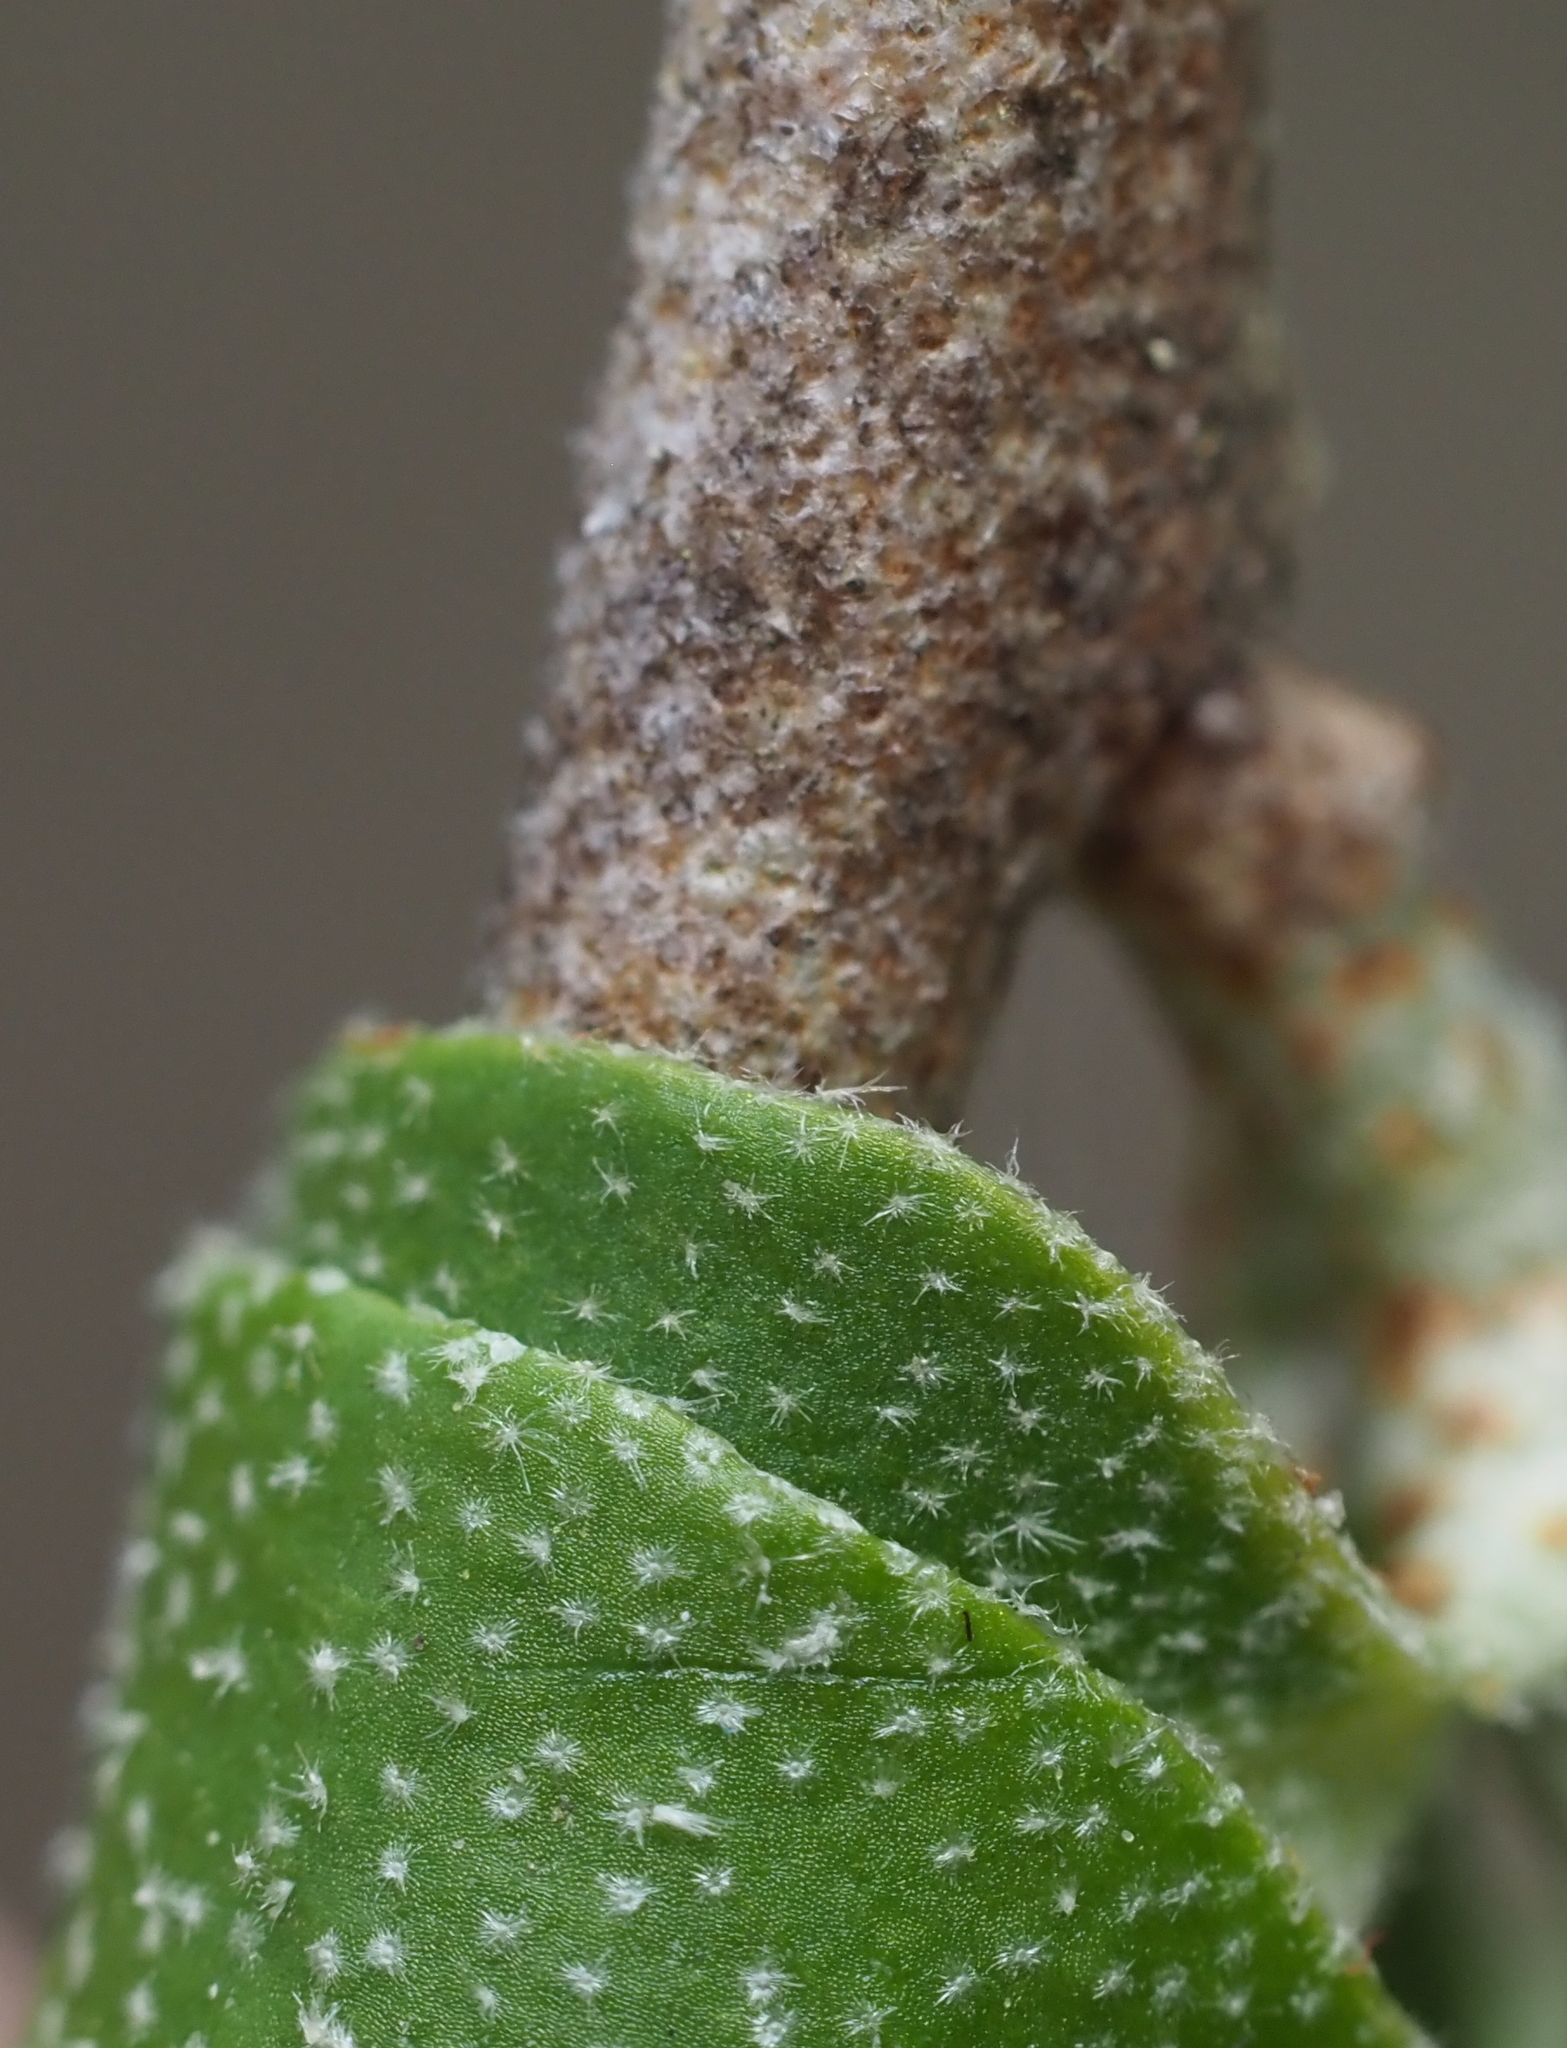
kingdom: Plantae
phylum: Tracheophyta
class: Magnoliopsida
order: Rosales
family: Elaeagnaceae
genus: Elaeagnus
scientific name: Elaeagnus umbellata
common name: Autumn olive
